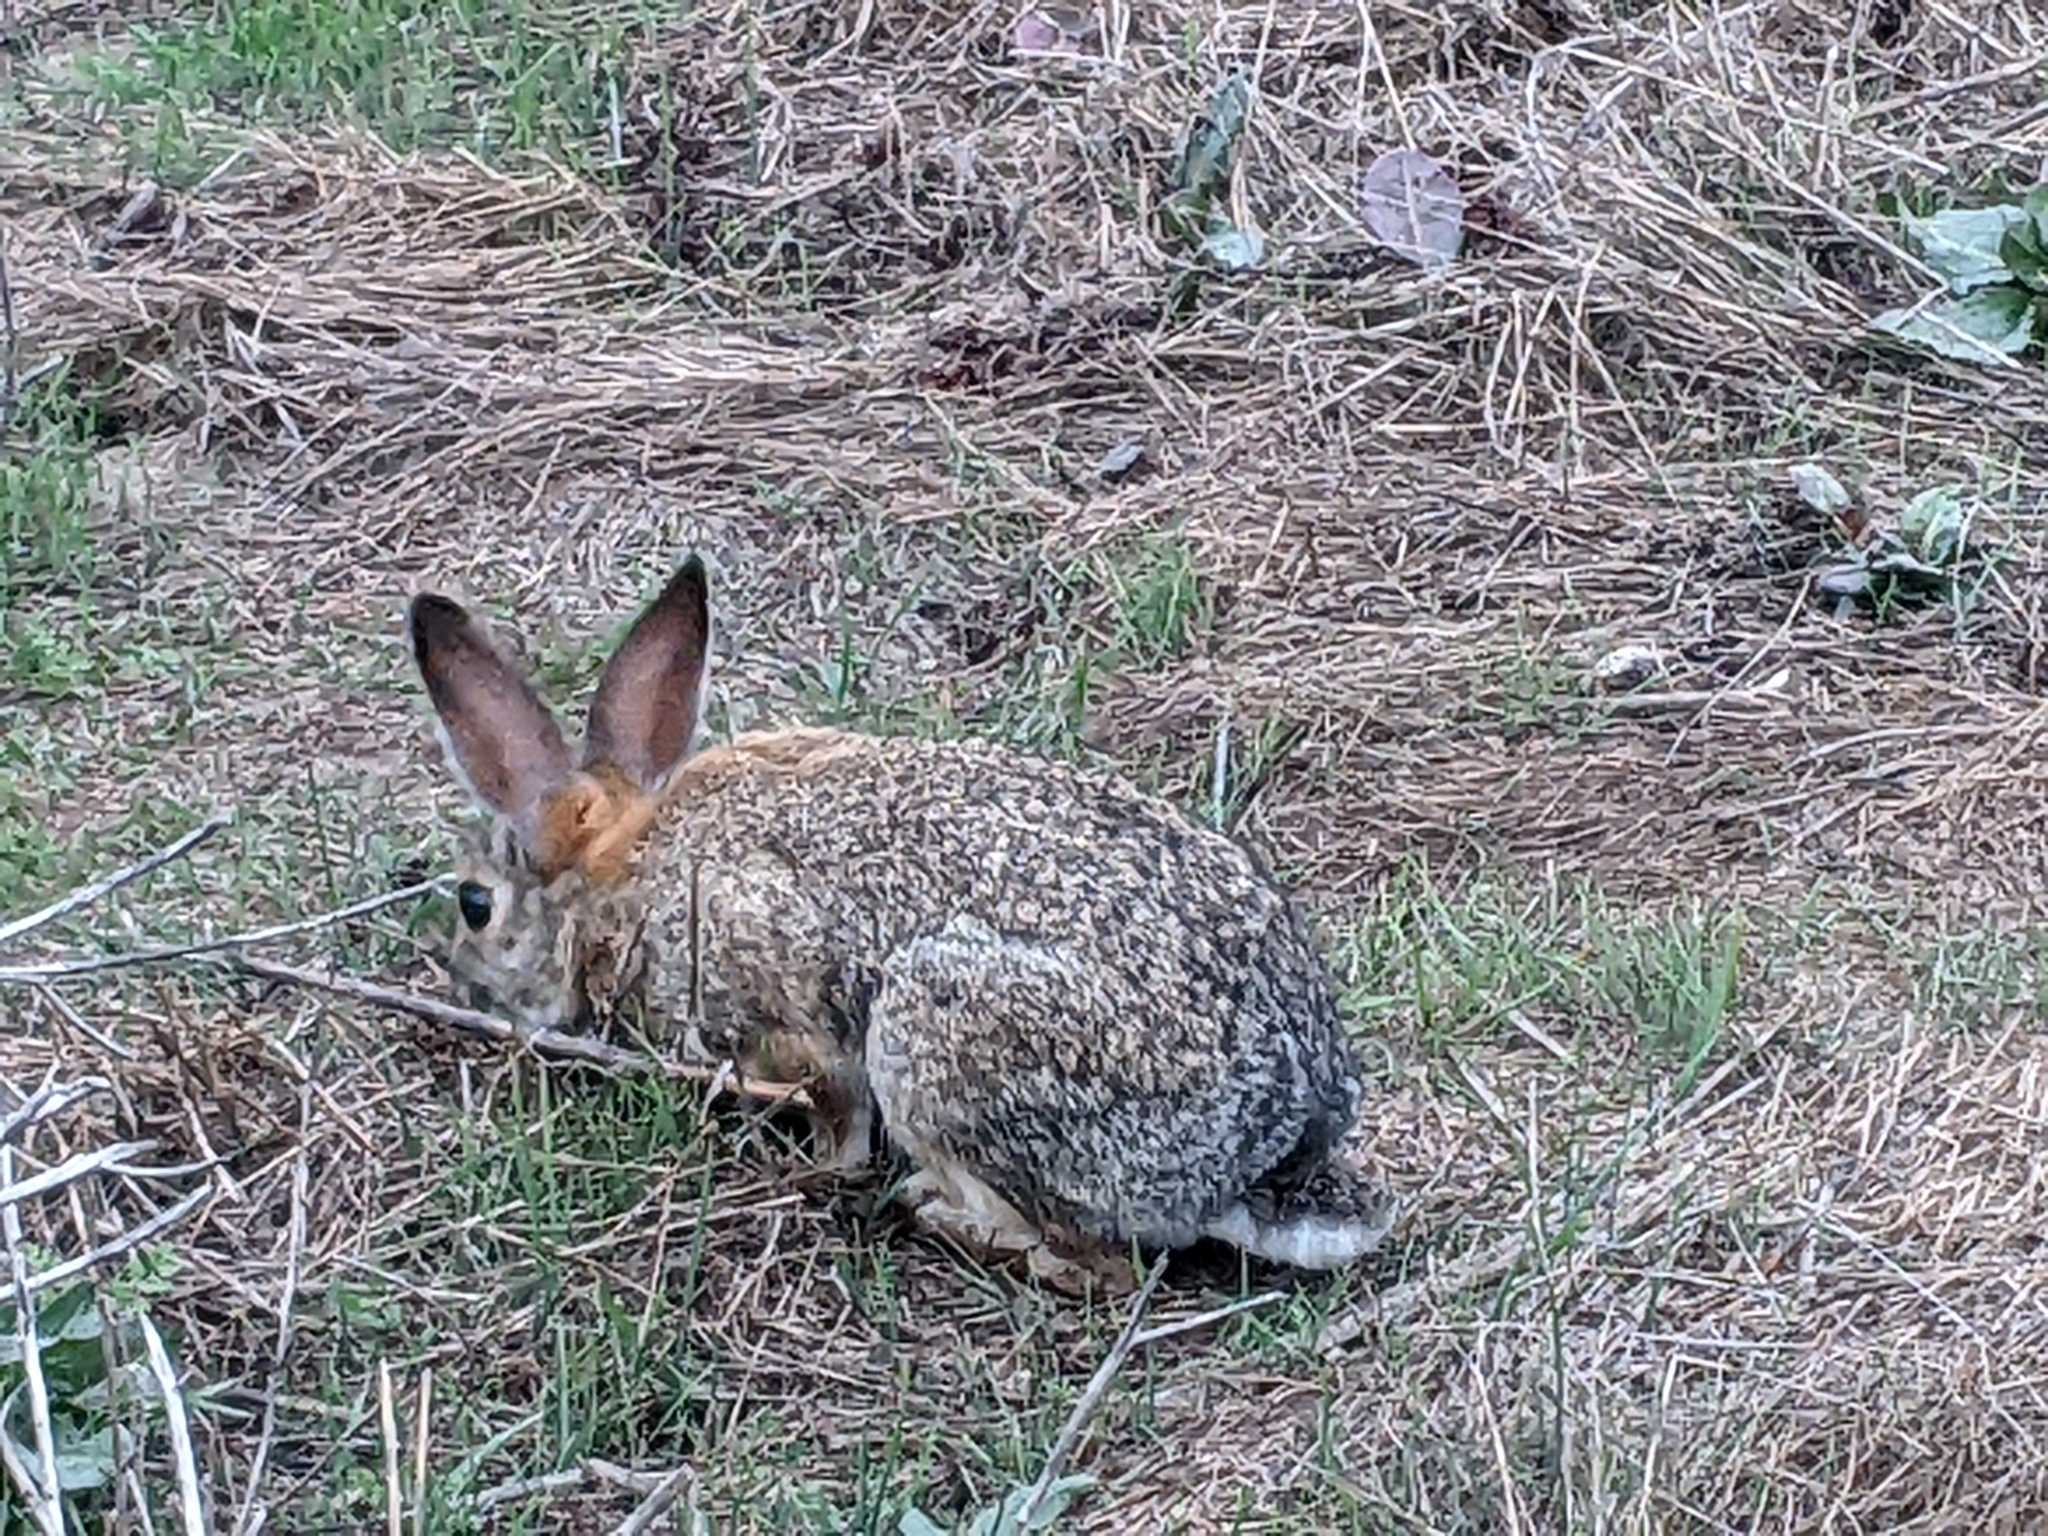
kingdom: Animalia
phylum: Chordata
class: Mammalia
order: Lagomorpha
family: Leporidae
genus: Sylvilagus
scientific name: Sylvilagus audubonii
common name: Desert cottontail
